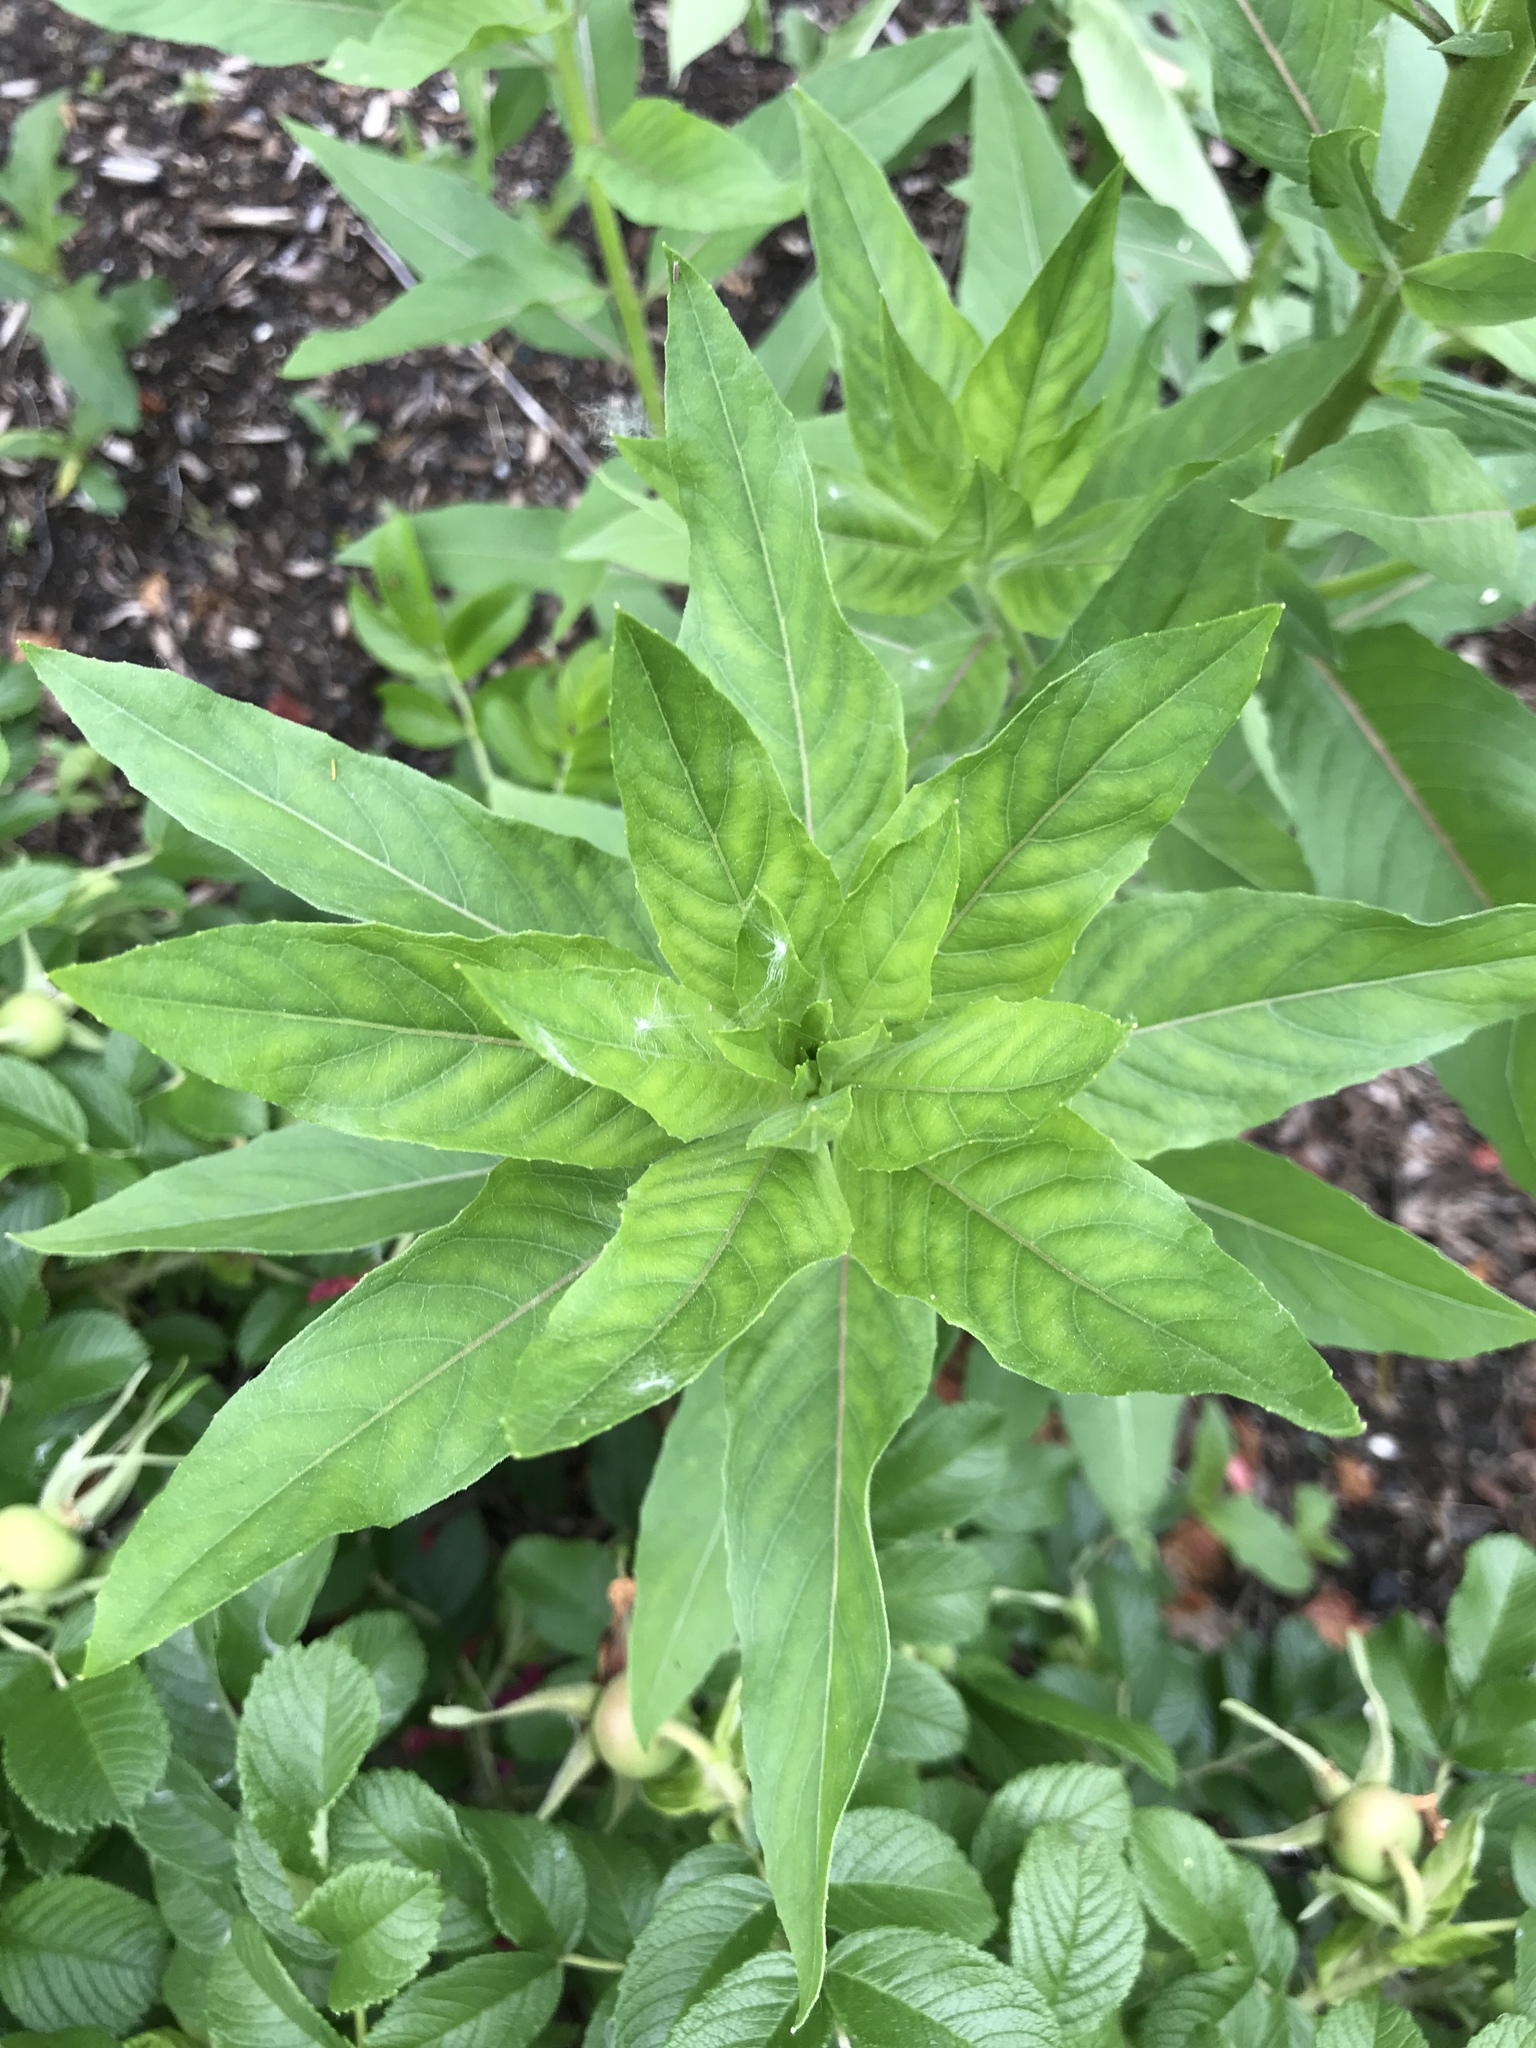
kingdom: Plantae
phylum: Tracheophyta
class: Magnoliopsida
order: Myrtales
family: Onagraceae
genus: Oenothera
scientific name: Oenothera biennis
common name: Common evening-primrose
